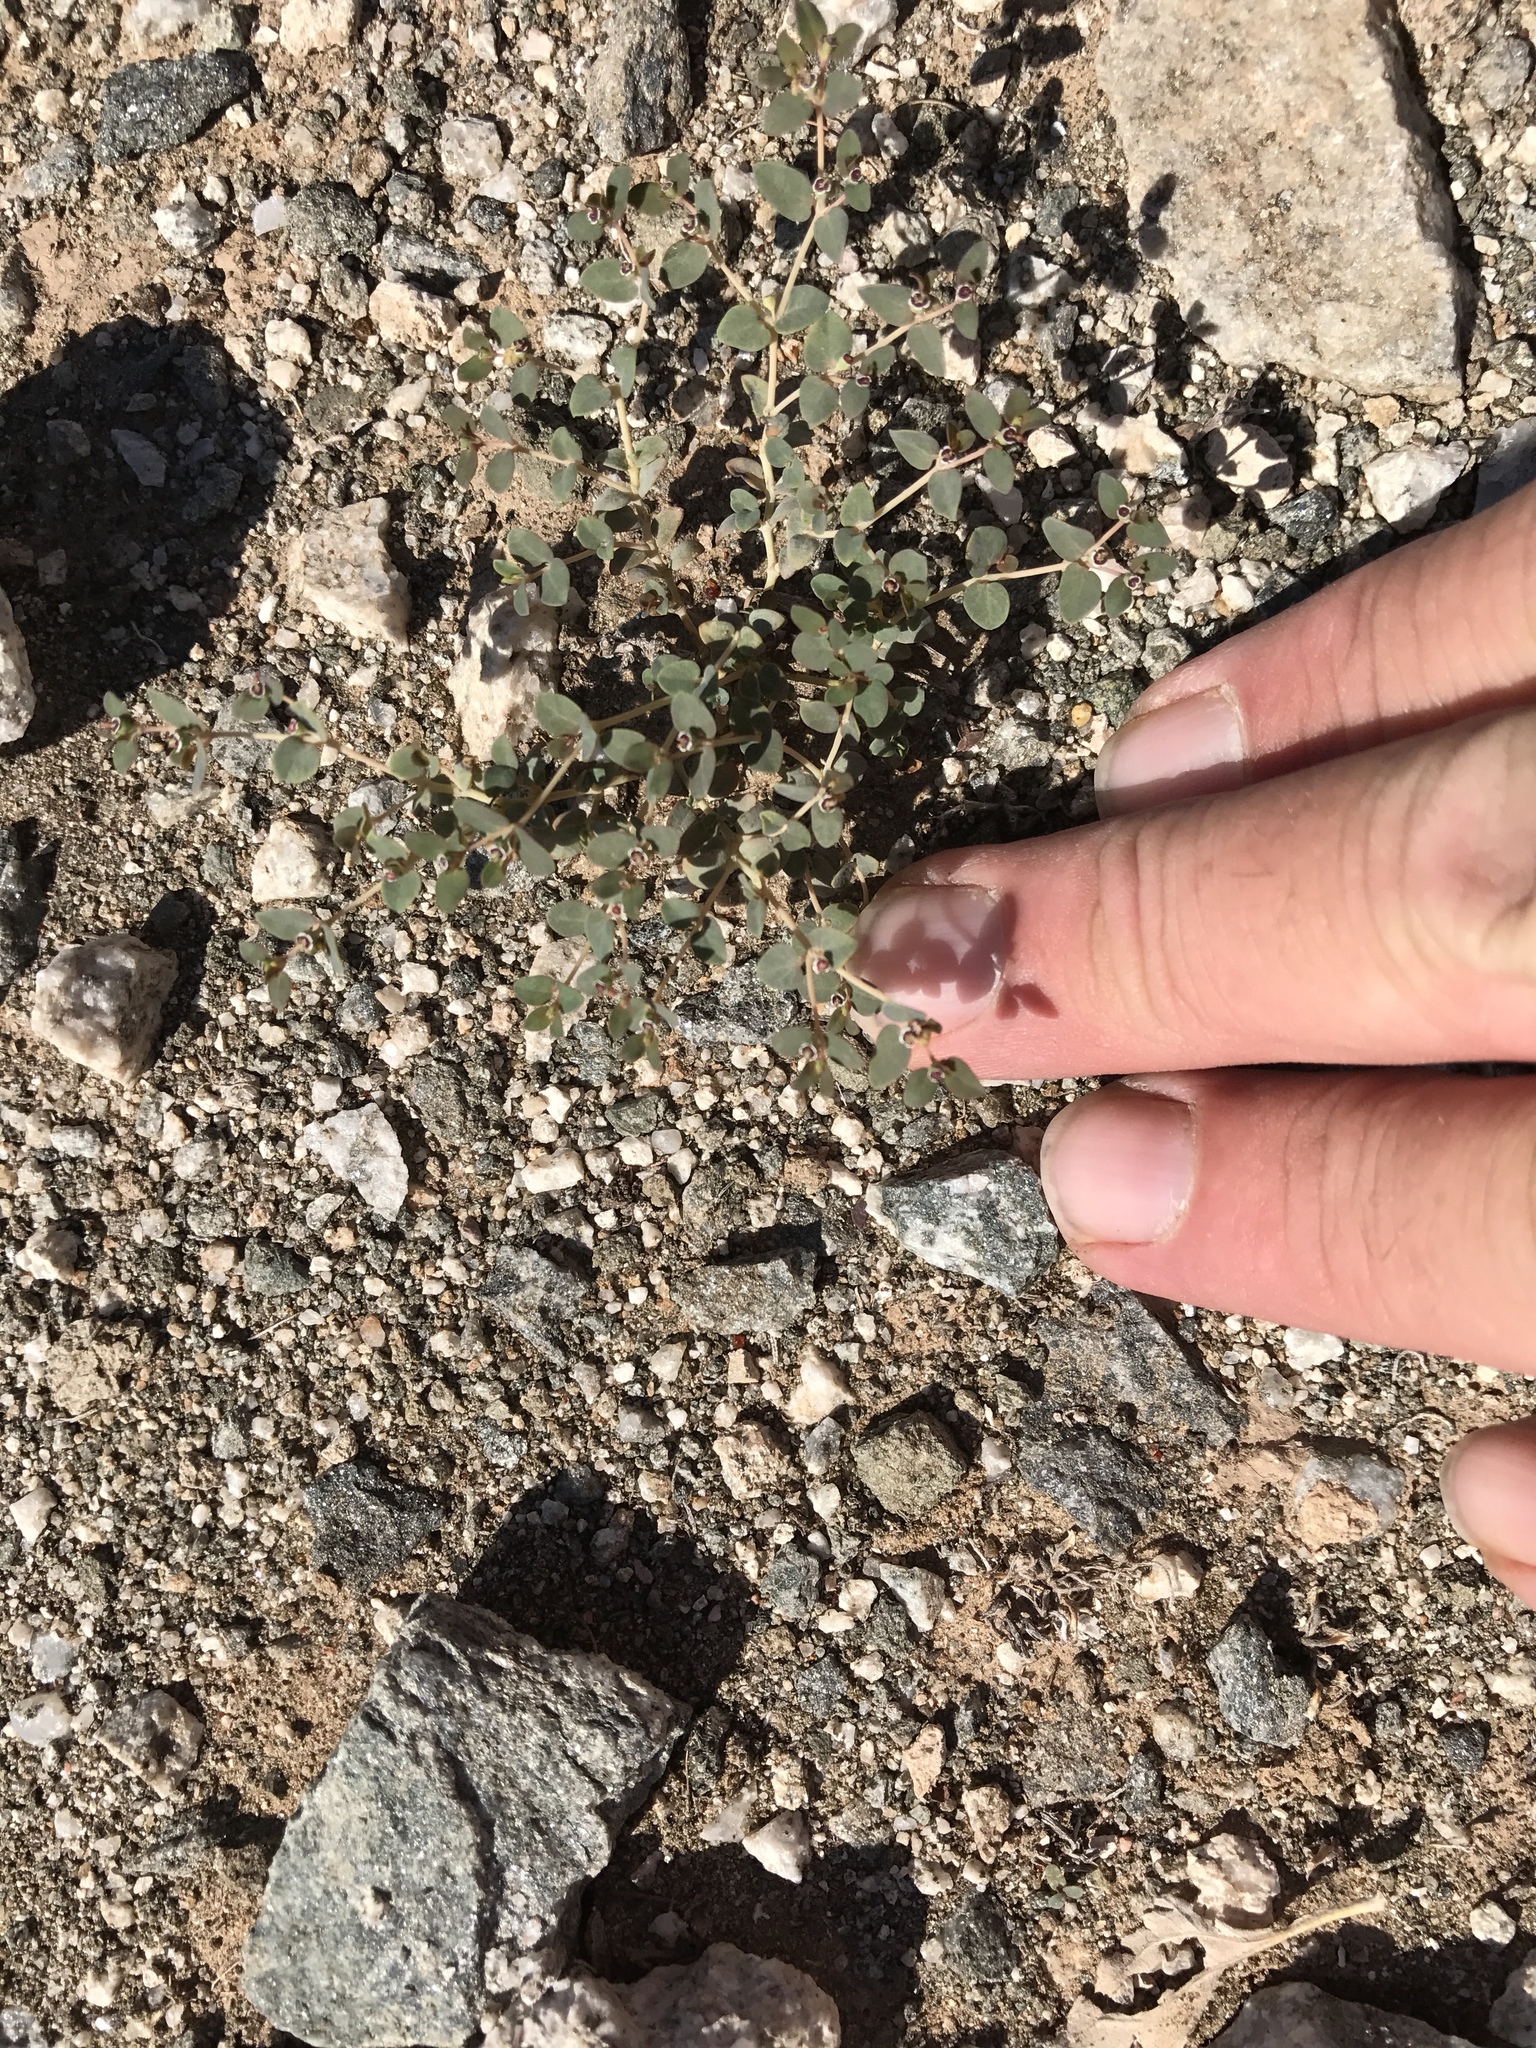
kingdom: Plantae
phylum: Tracheophyta
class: Magnoliopsida
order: Malpighiales
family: Euphorbiaceae
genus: Euphorbia
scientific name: Euphorbia polycarpa
